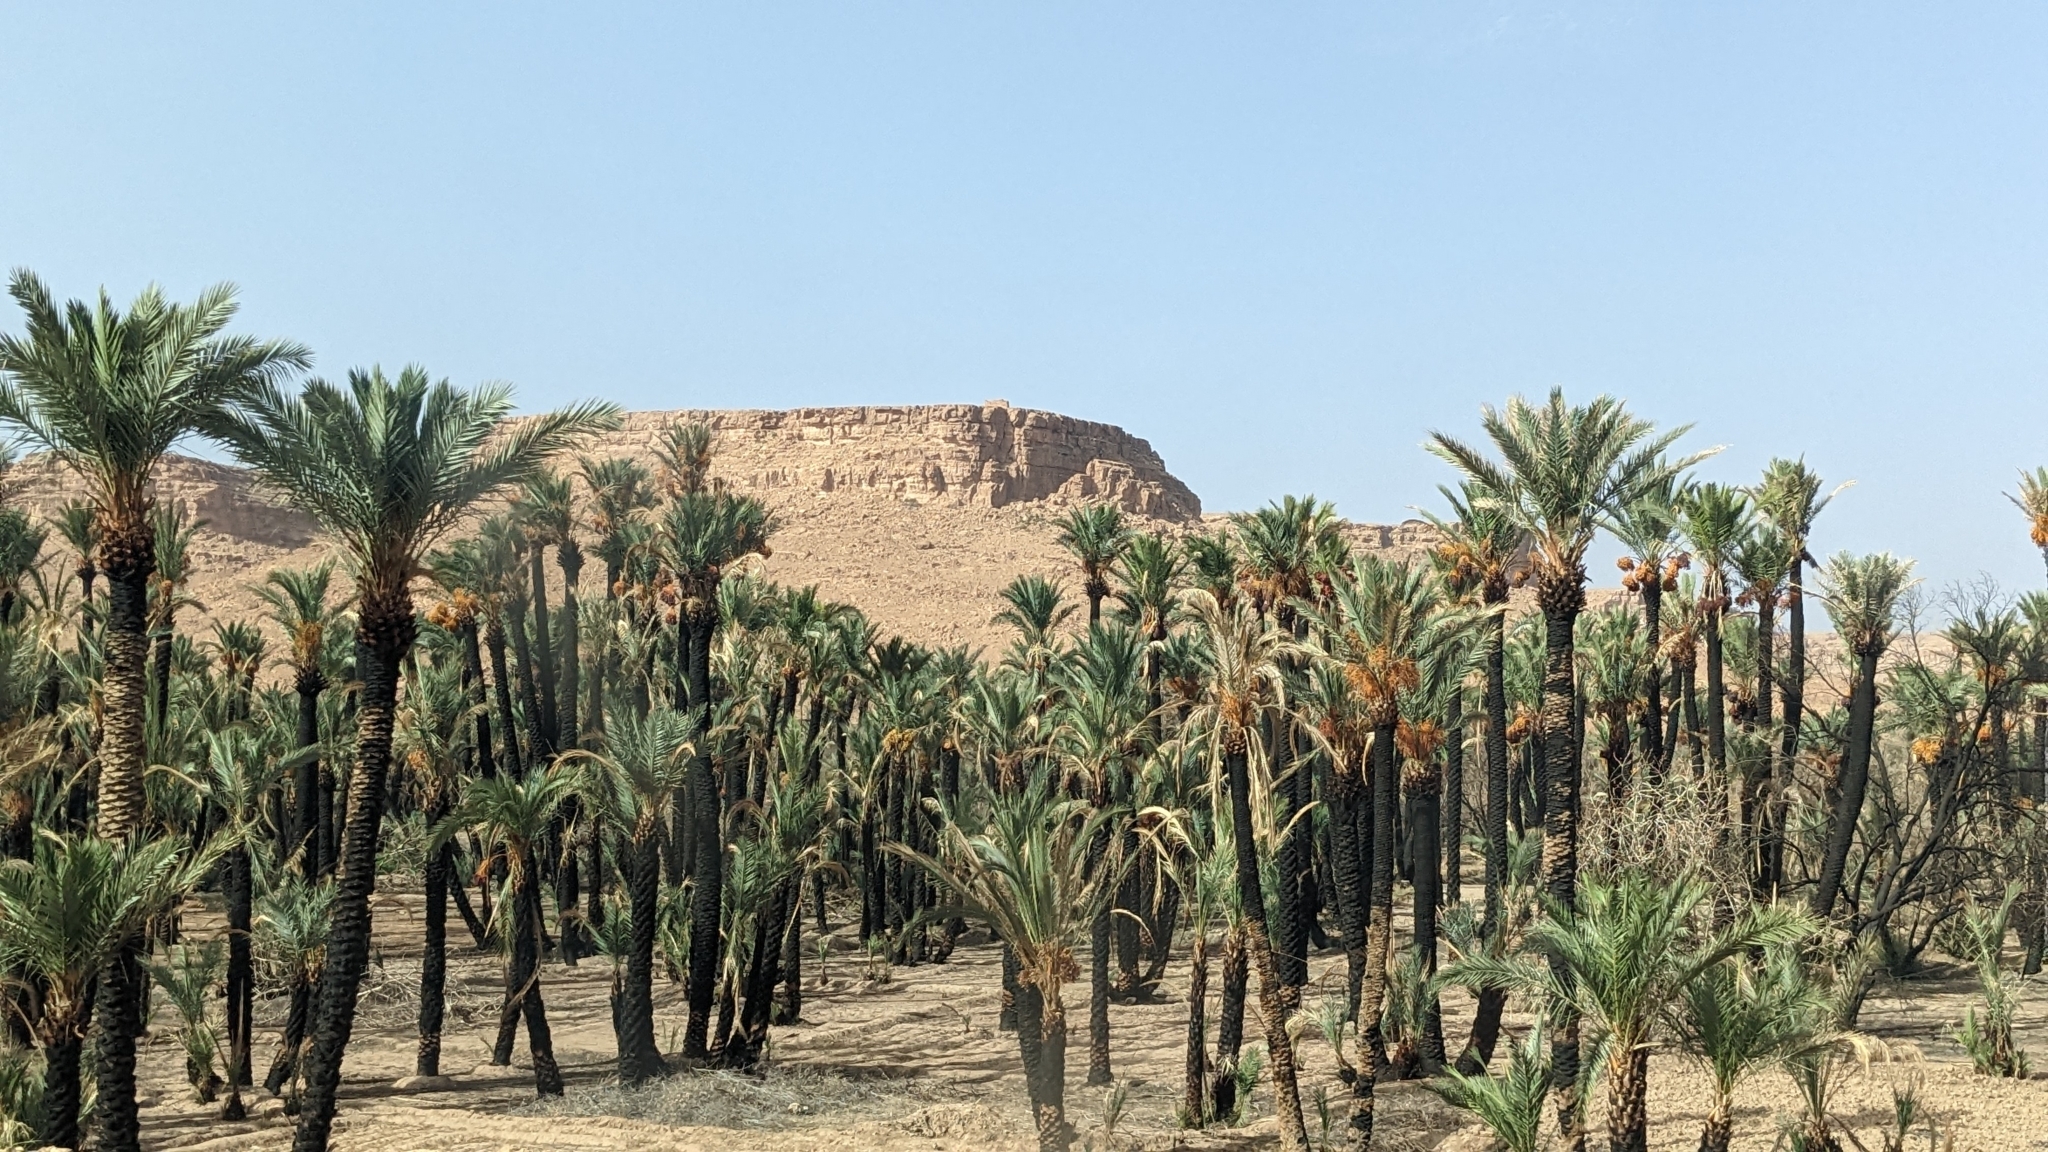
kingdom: Plantae
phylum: Tracheophyta
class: Liliopsida
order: Arecales
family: Arecaceae
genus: Phoenix
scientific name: Phoenix dactylifera
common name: Date palm
